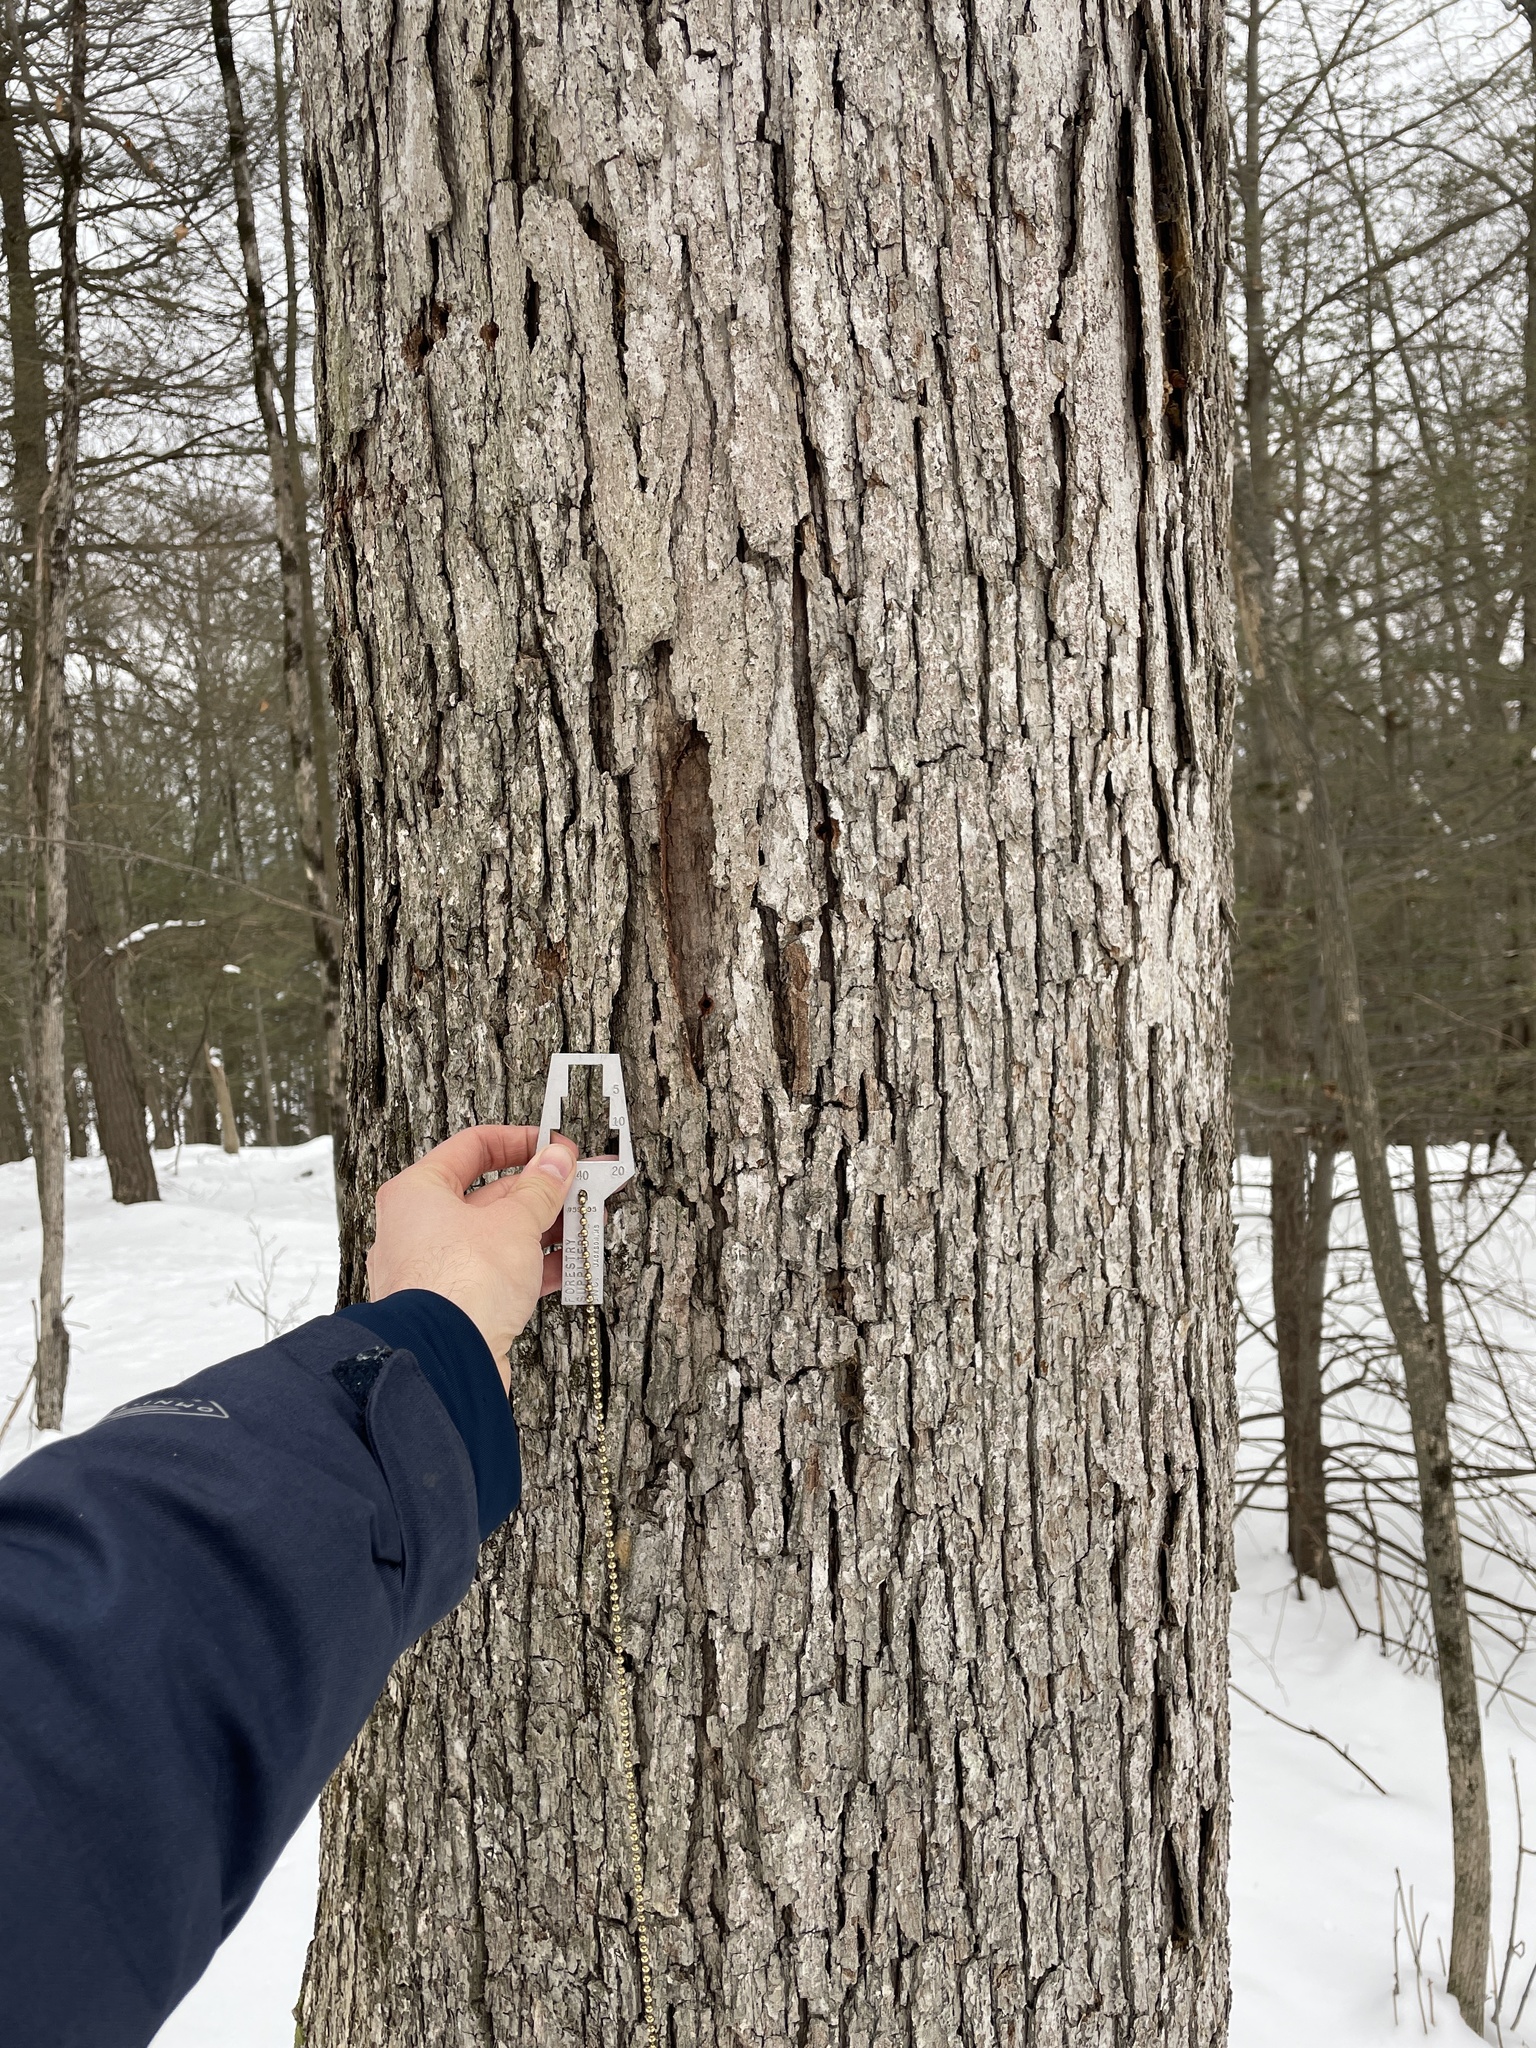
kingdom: Plantae
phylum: Tracheophyta
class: Magnoliopsida
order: Fagales
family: Fagaceae
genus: Quercus
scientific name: Quercus alba
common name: White oak
